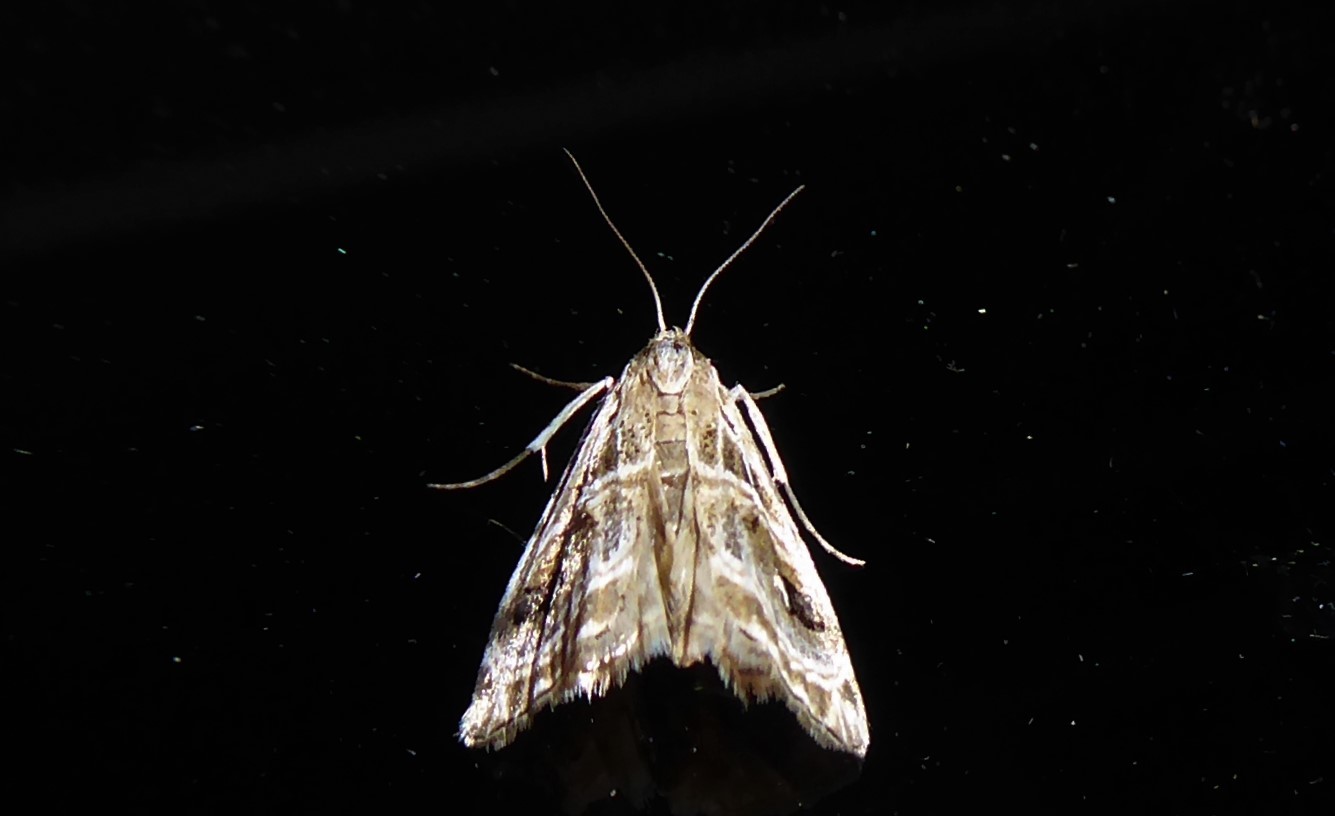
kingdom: Animalia
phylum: Arthropoda
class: Insecta
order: Lepidoptera
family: Crambidae
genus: Gadira
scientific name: Gadira acerella
